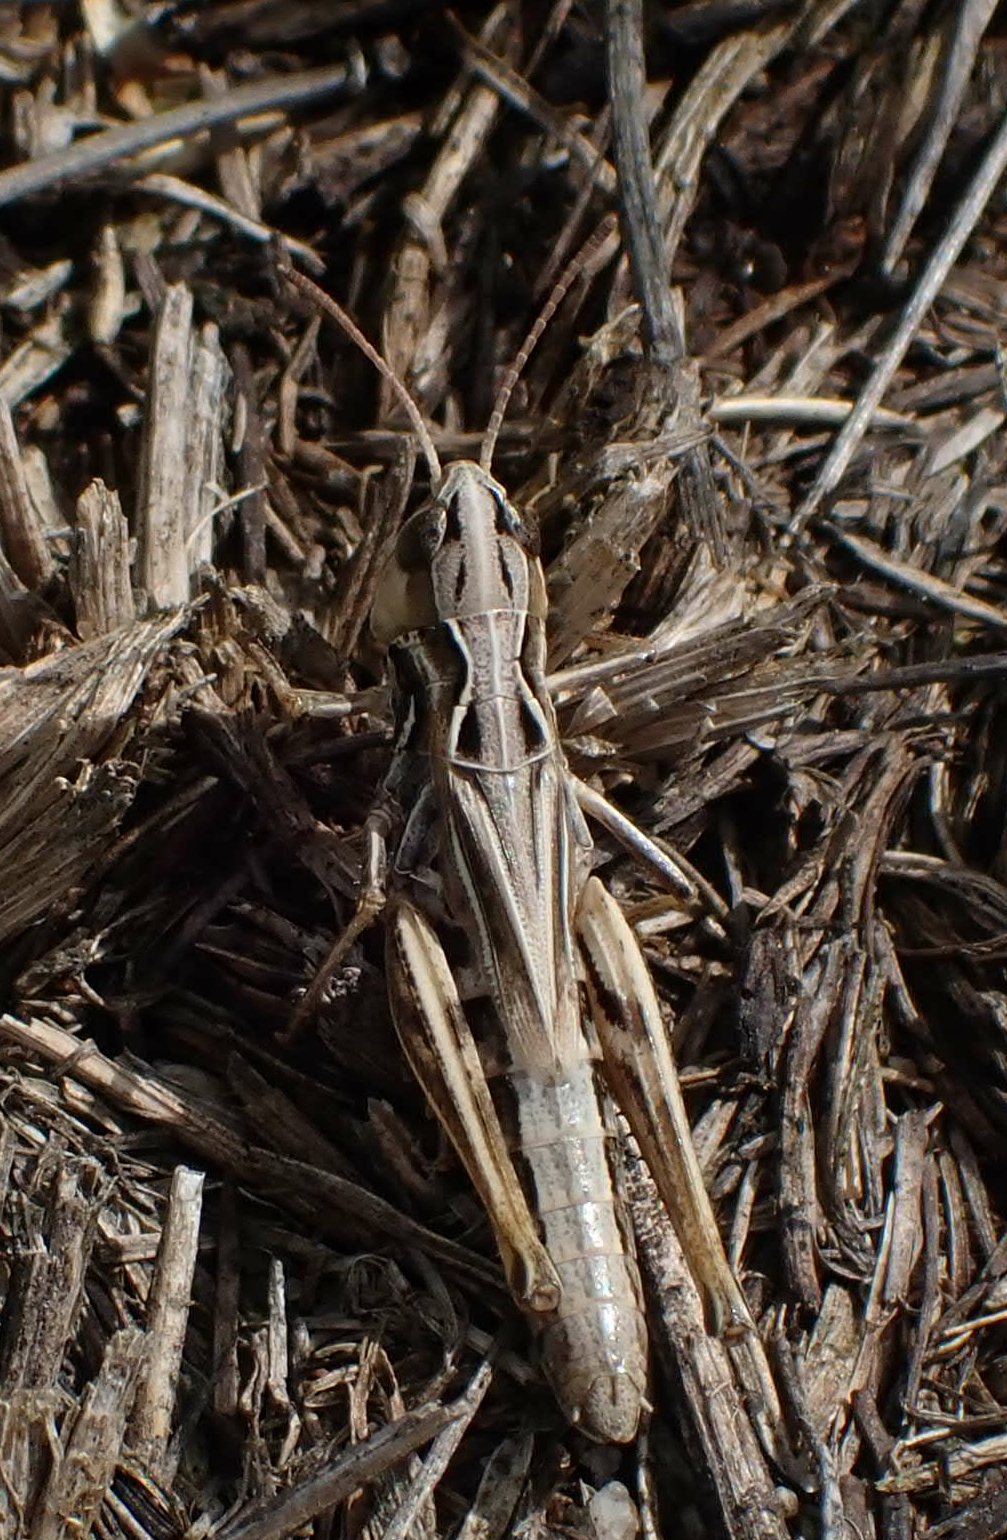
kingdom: Animalia
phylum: Arthropoda
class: Insecta
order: Orthoptera
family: Acrididae
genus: Aeropedellus
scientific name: Aeropedellus clavatus
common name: Clubhorned grasshopper
